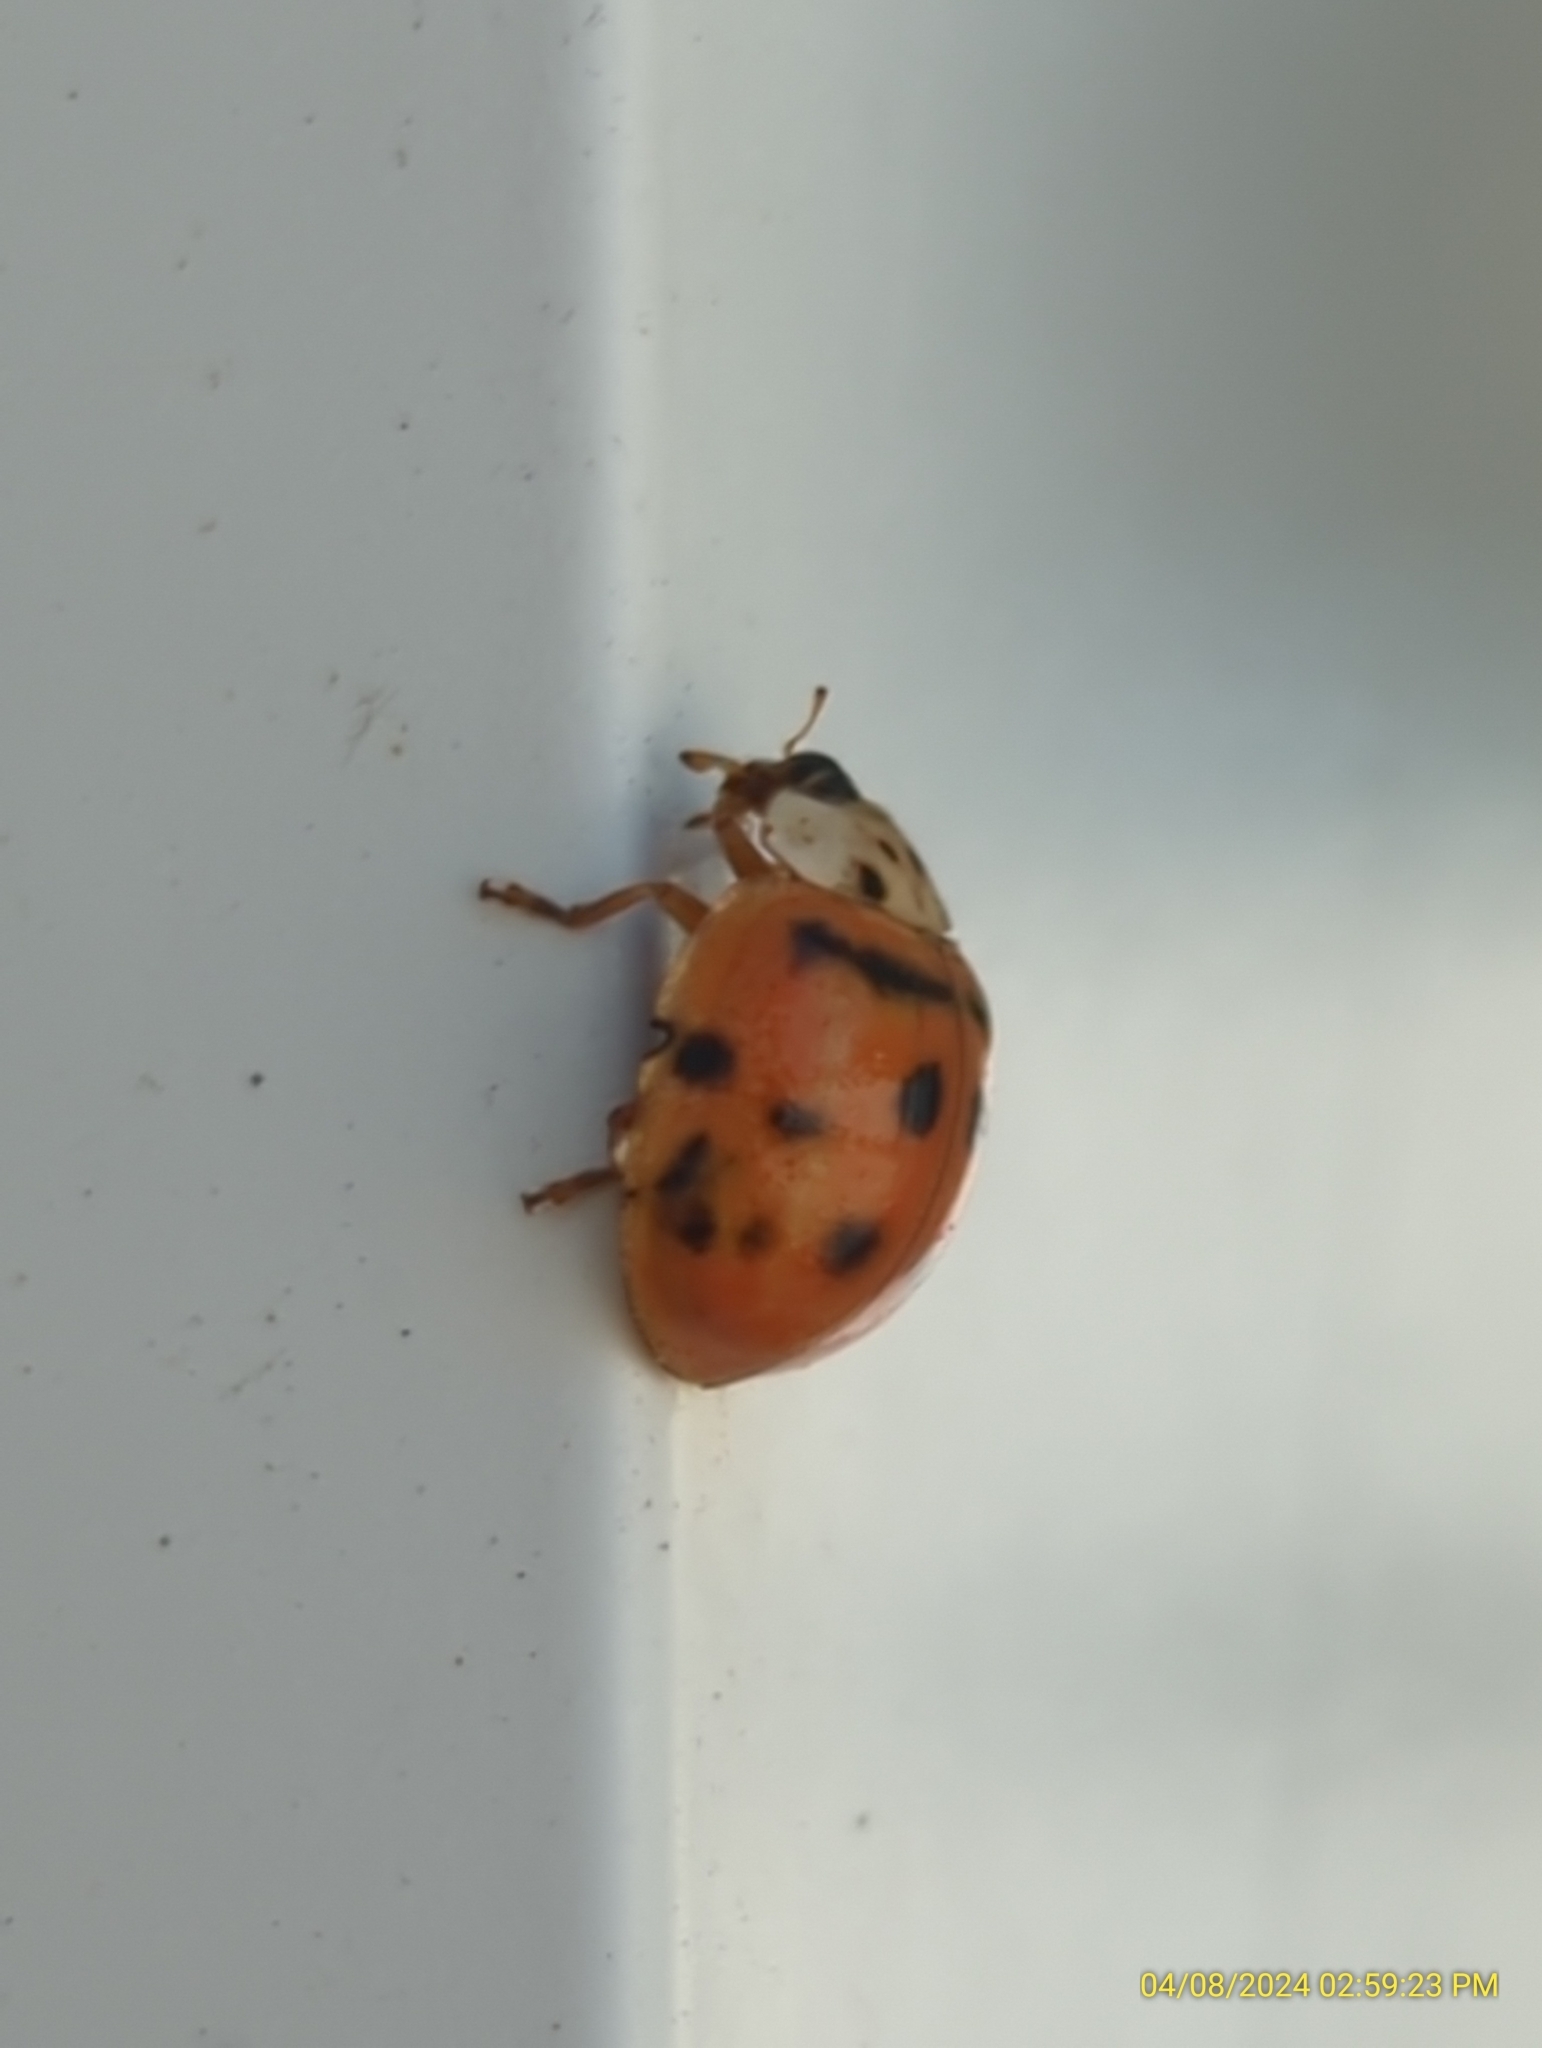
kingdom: Animalia
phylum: Arthropoda
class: Insecta
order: Coleoptera
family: Coccinellidae
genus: Harmonia
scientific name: Harmonia axyridis
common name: Harlequin ladybird
